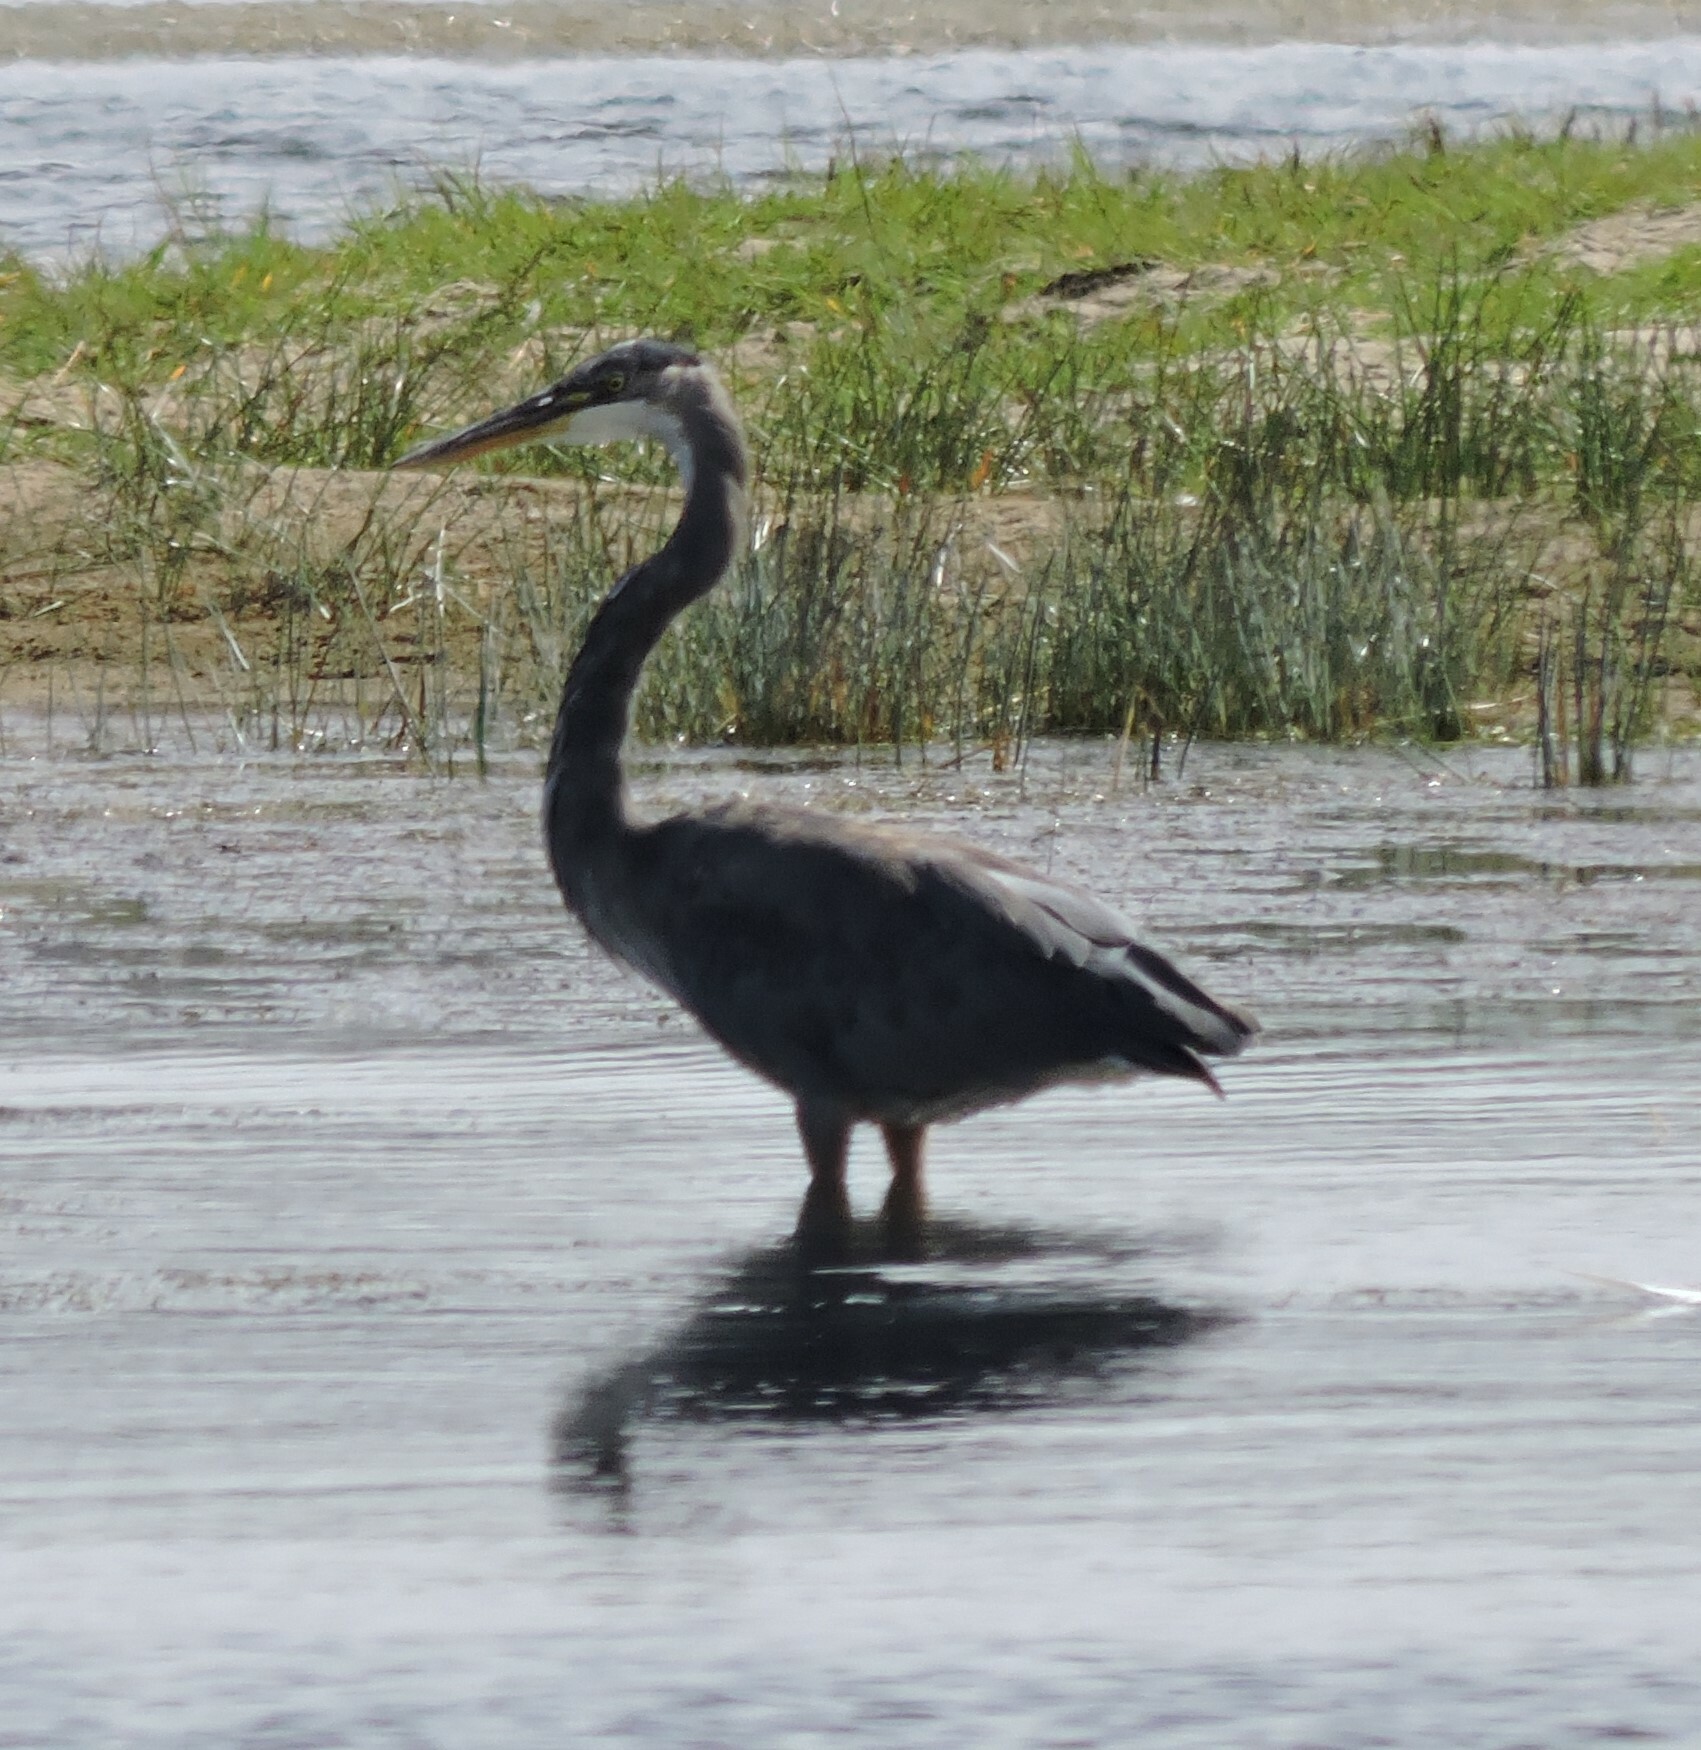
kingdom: Animalia
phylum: Chordata
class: Aves
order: Pelecaniformes
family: Ardeidae
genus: Ardea
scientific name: Ardea herodias
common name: Great blue heron
